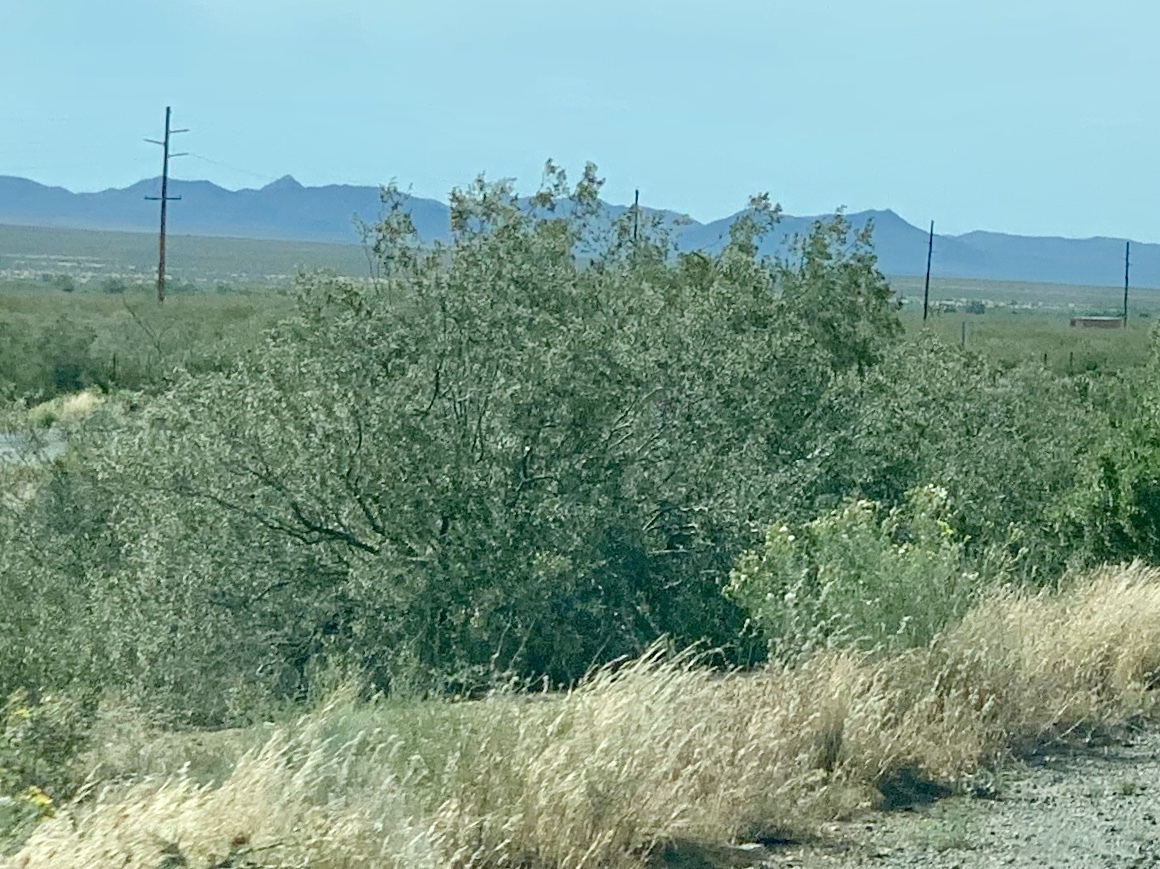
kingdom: Plantae
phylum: Tracheophyta
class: Magnoliopsida
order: Zygophyllales
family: Zygophyllaceae
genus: Larrea
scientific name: Larrea tridentata
